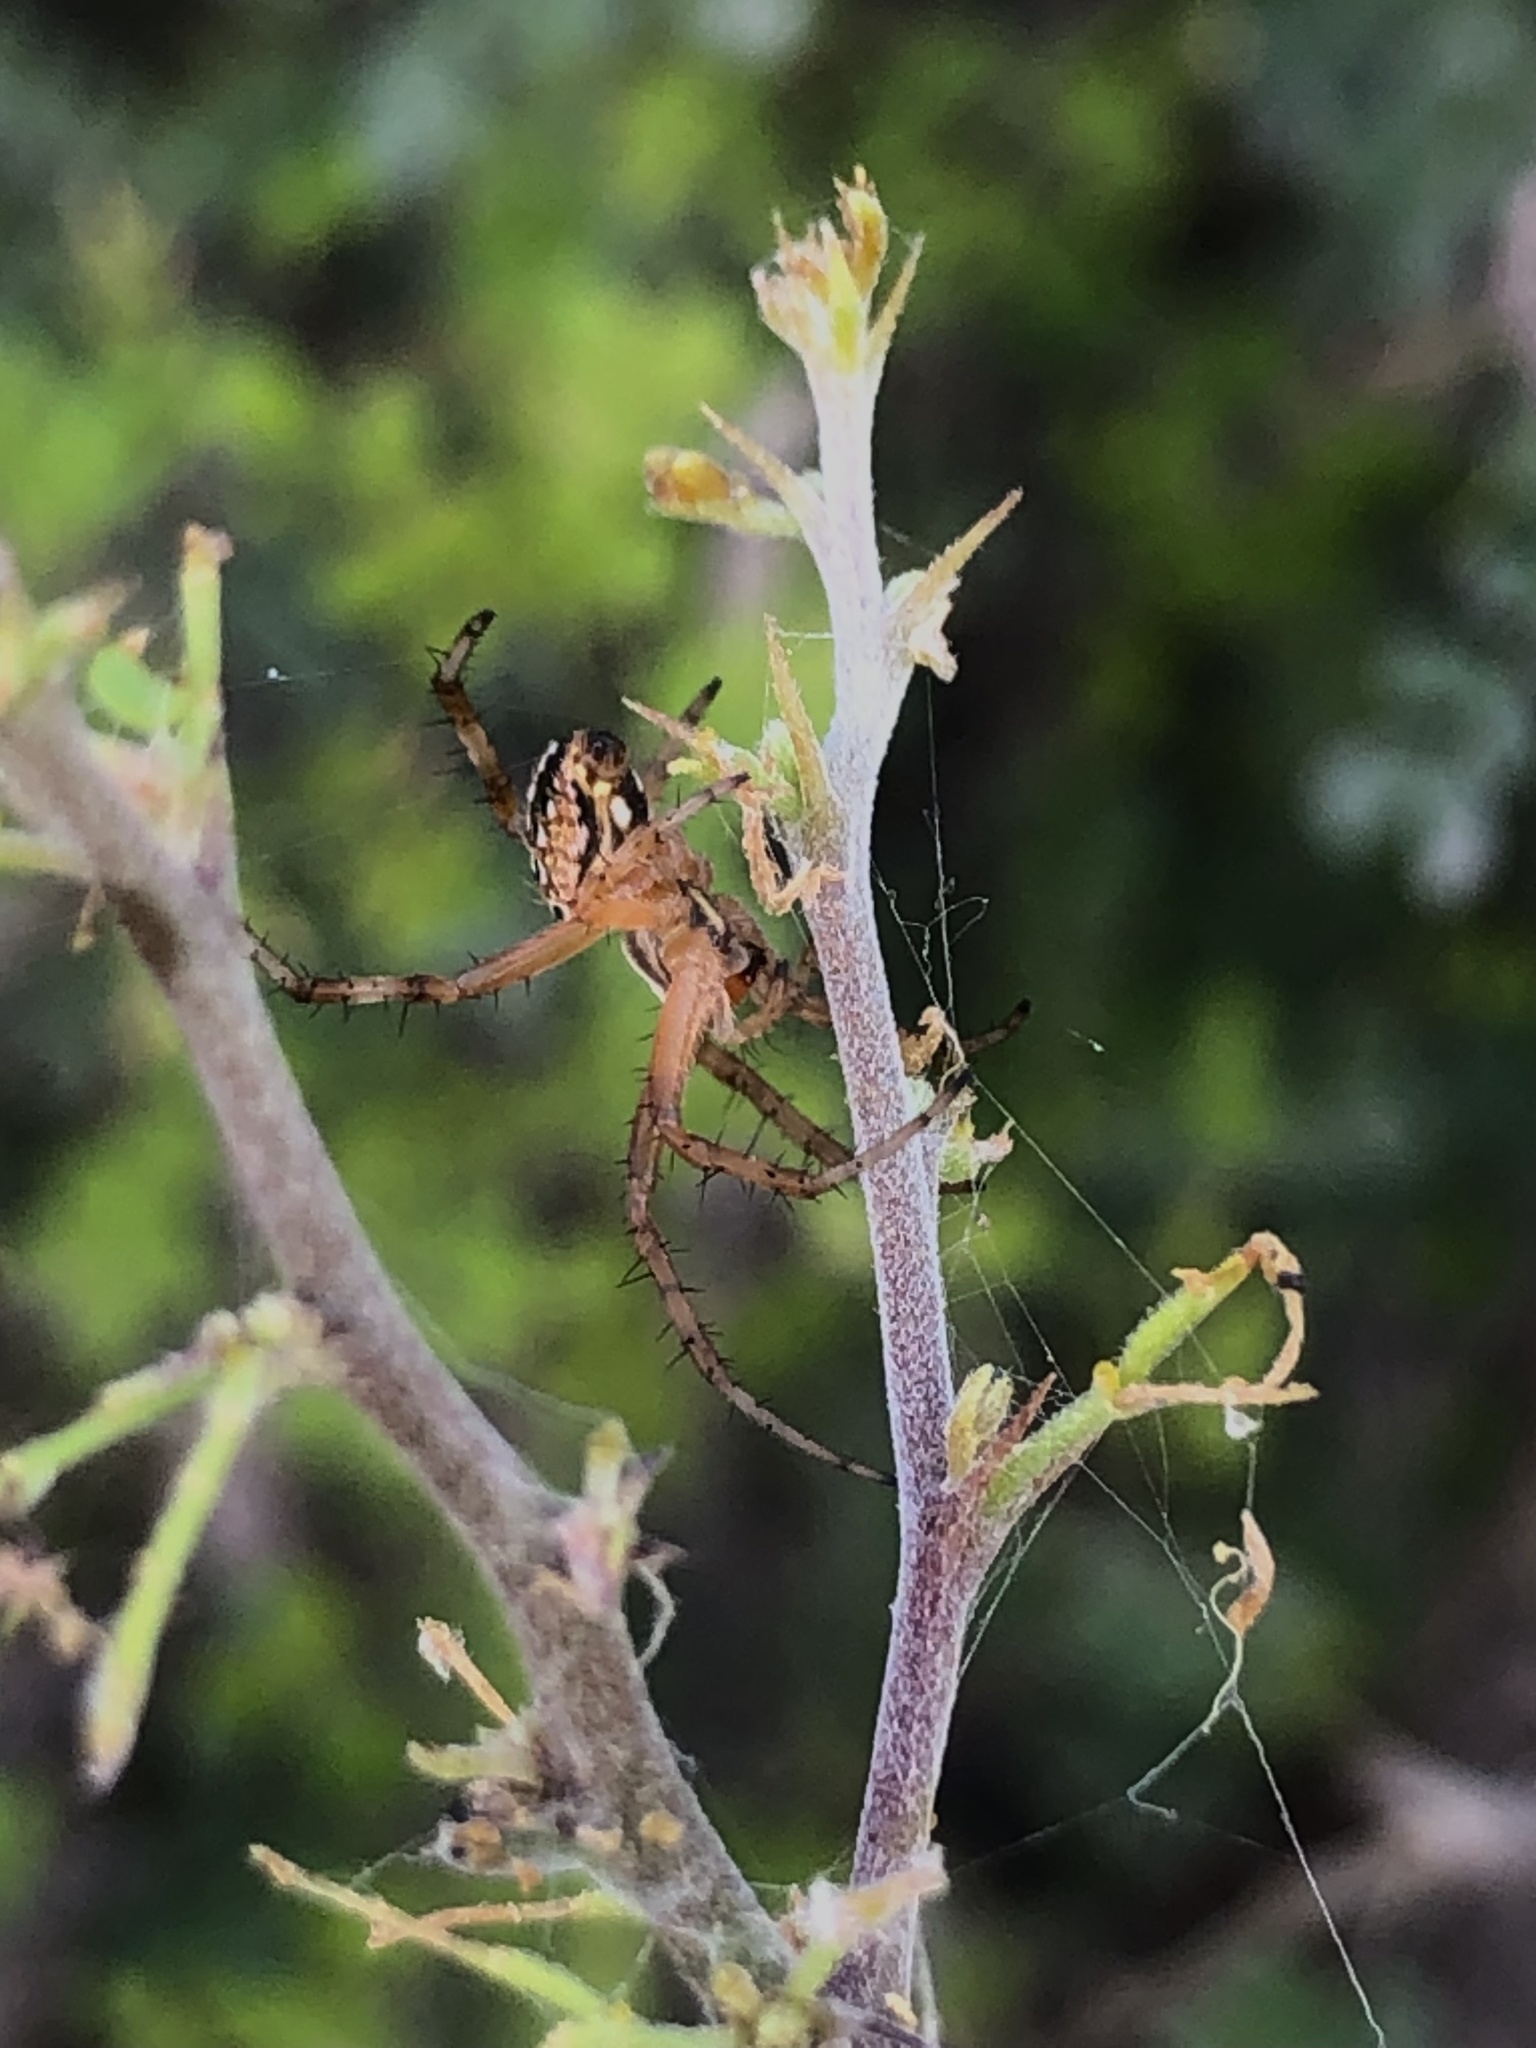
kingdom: Animalia
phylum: Arthropoda
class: Arachnida
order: Araneae
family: Araneidae
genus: Neoscona
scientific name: Neoscona oaxacensis
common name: Orb weavers
